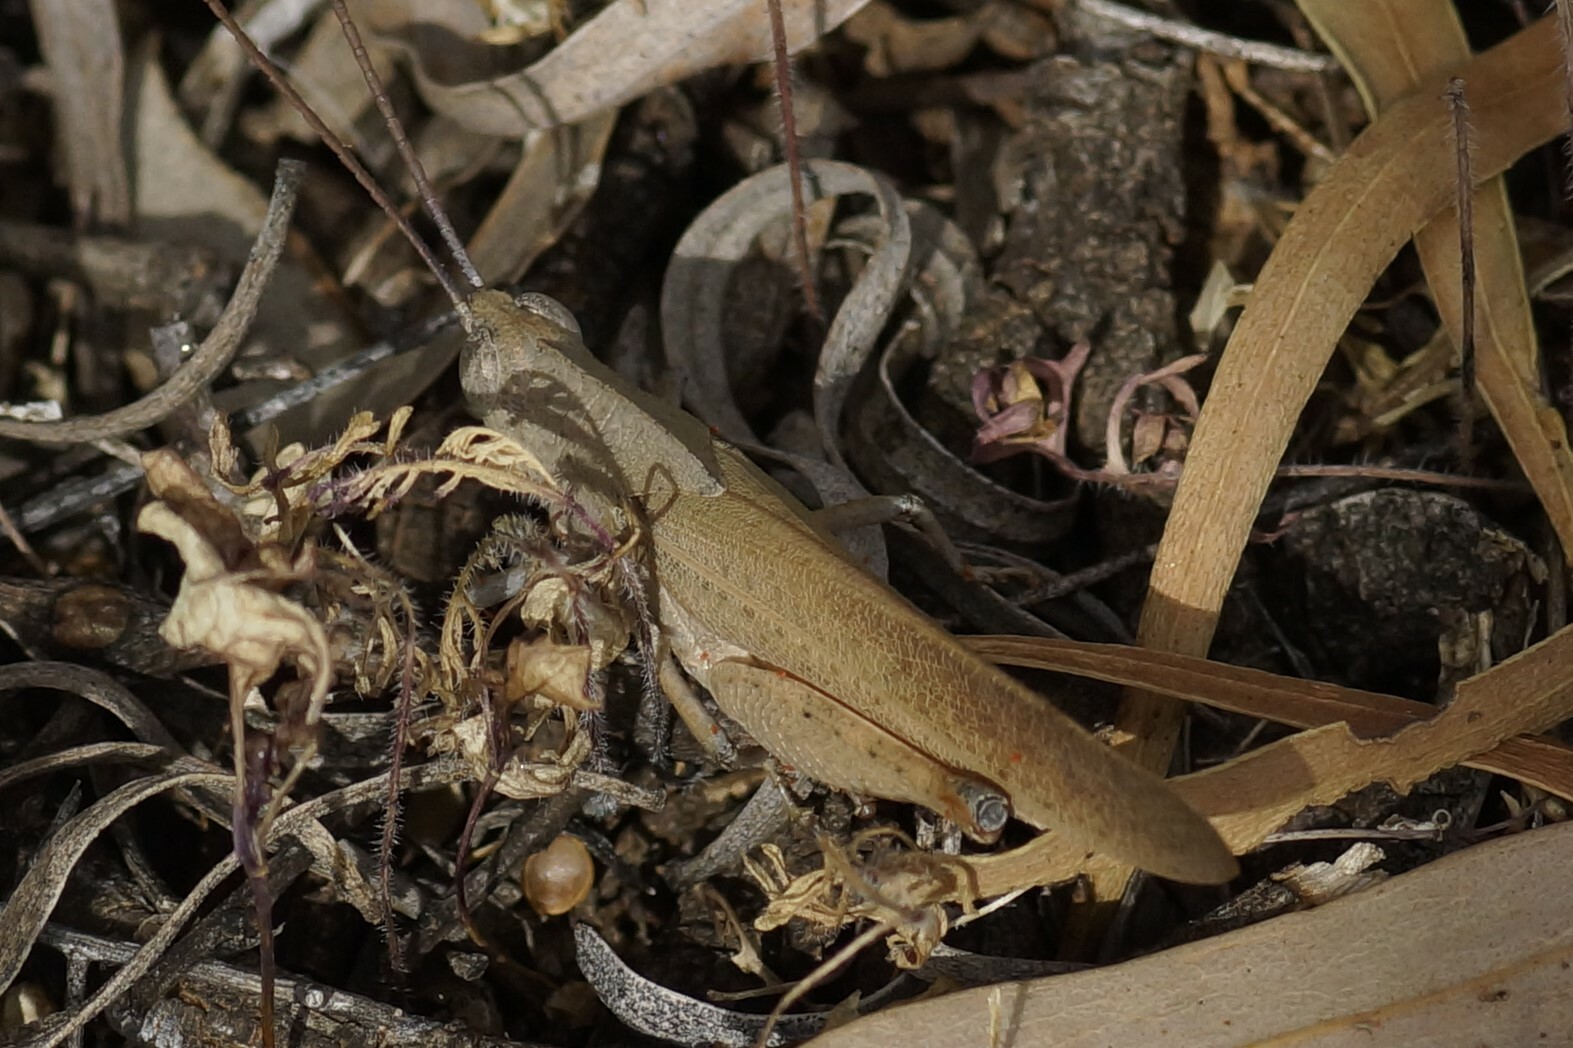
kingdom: Animalia
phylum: Arthropoda
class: Insecta
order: Orthoptera
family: Acrididae
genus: Goniaea
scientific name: Goniaea opomaloides
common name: Mimetic gumleaf grasshopper
